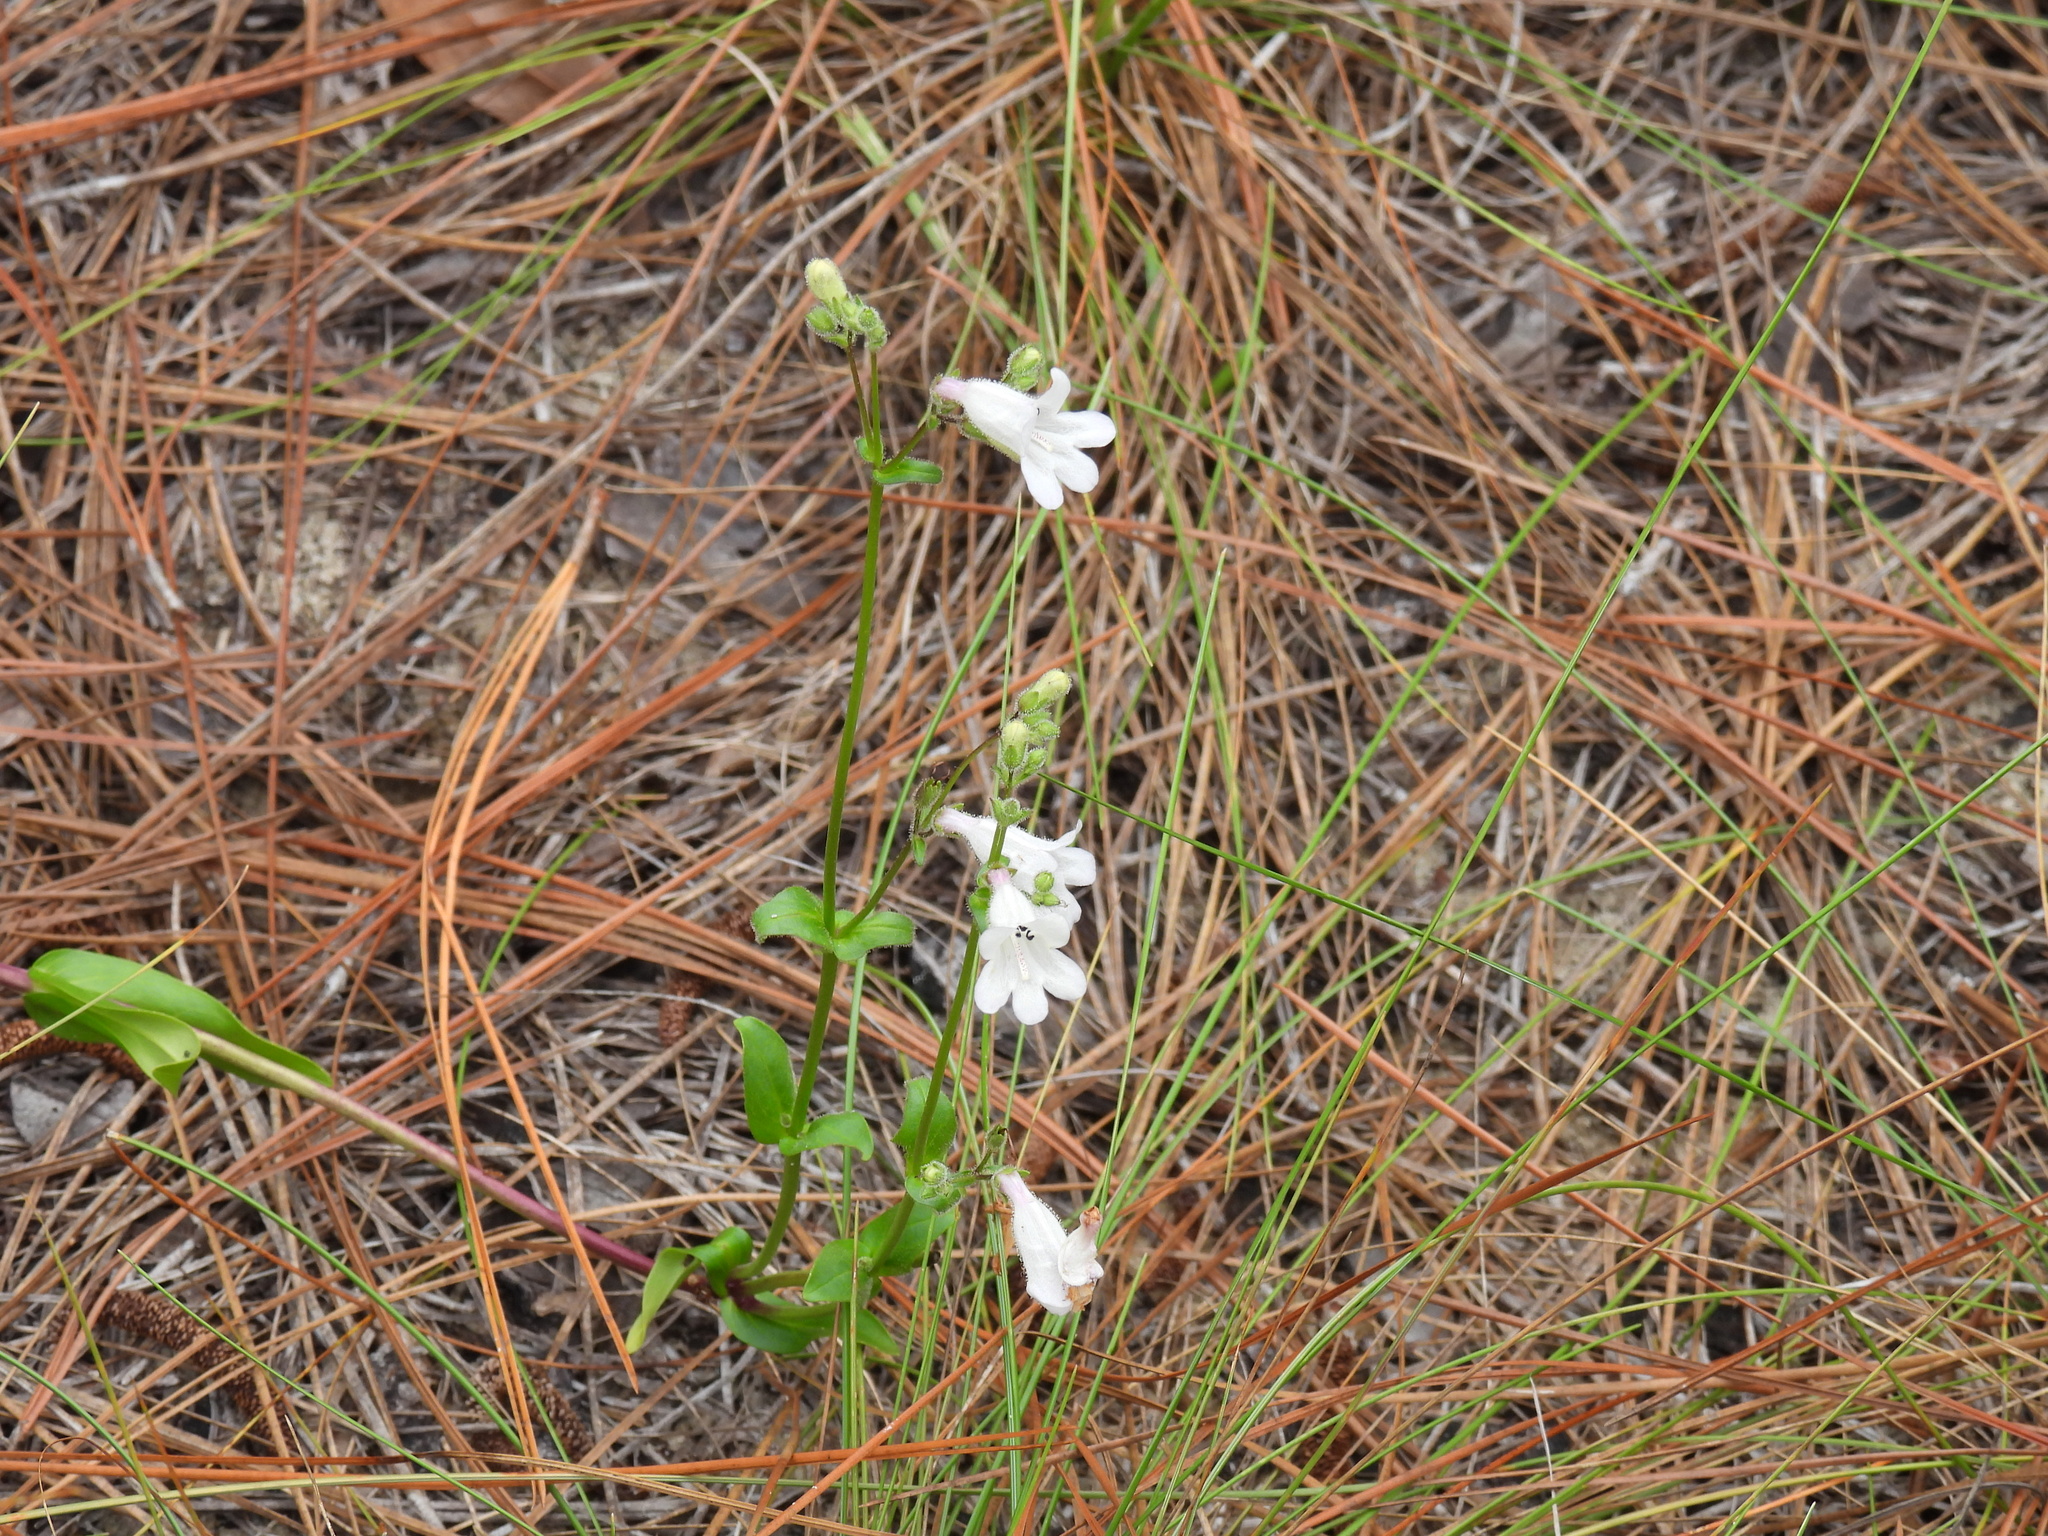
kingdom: Plantae
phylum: Tracheophyta
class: Magnoliopsida
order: Lamiales
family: Plantaginaceae
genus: Penstemon
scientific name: Penstemon multiflorus
